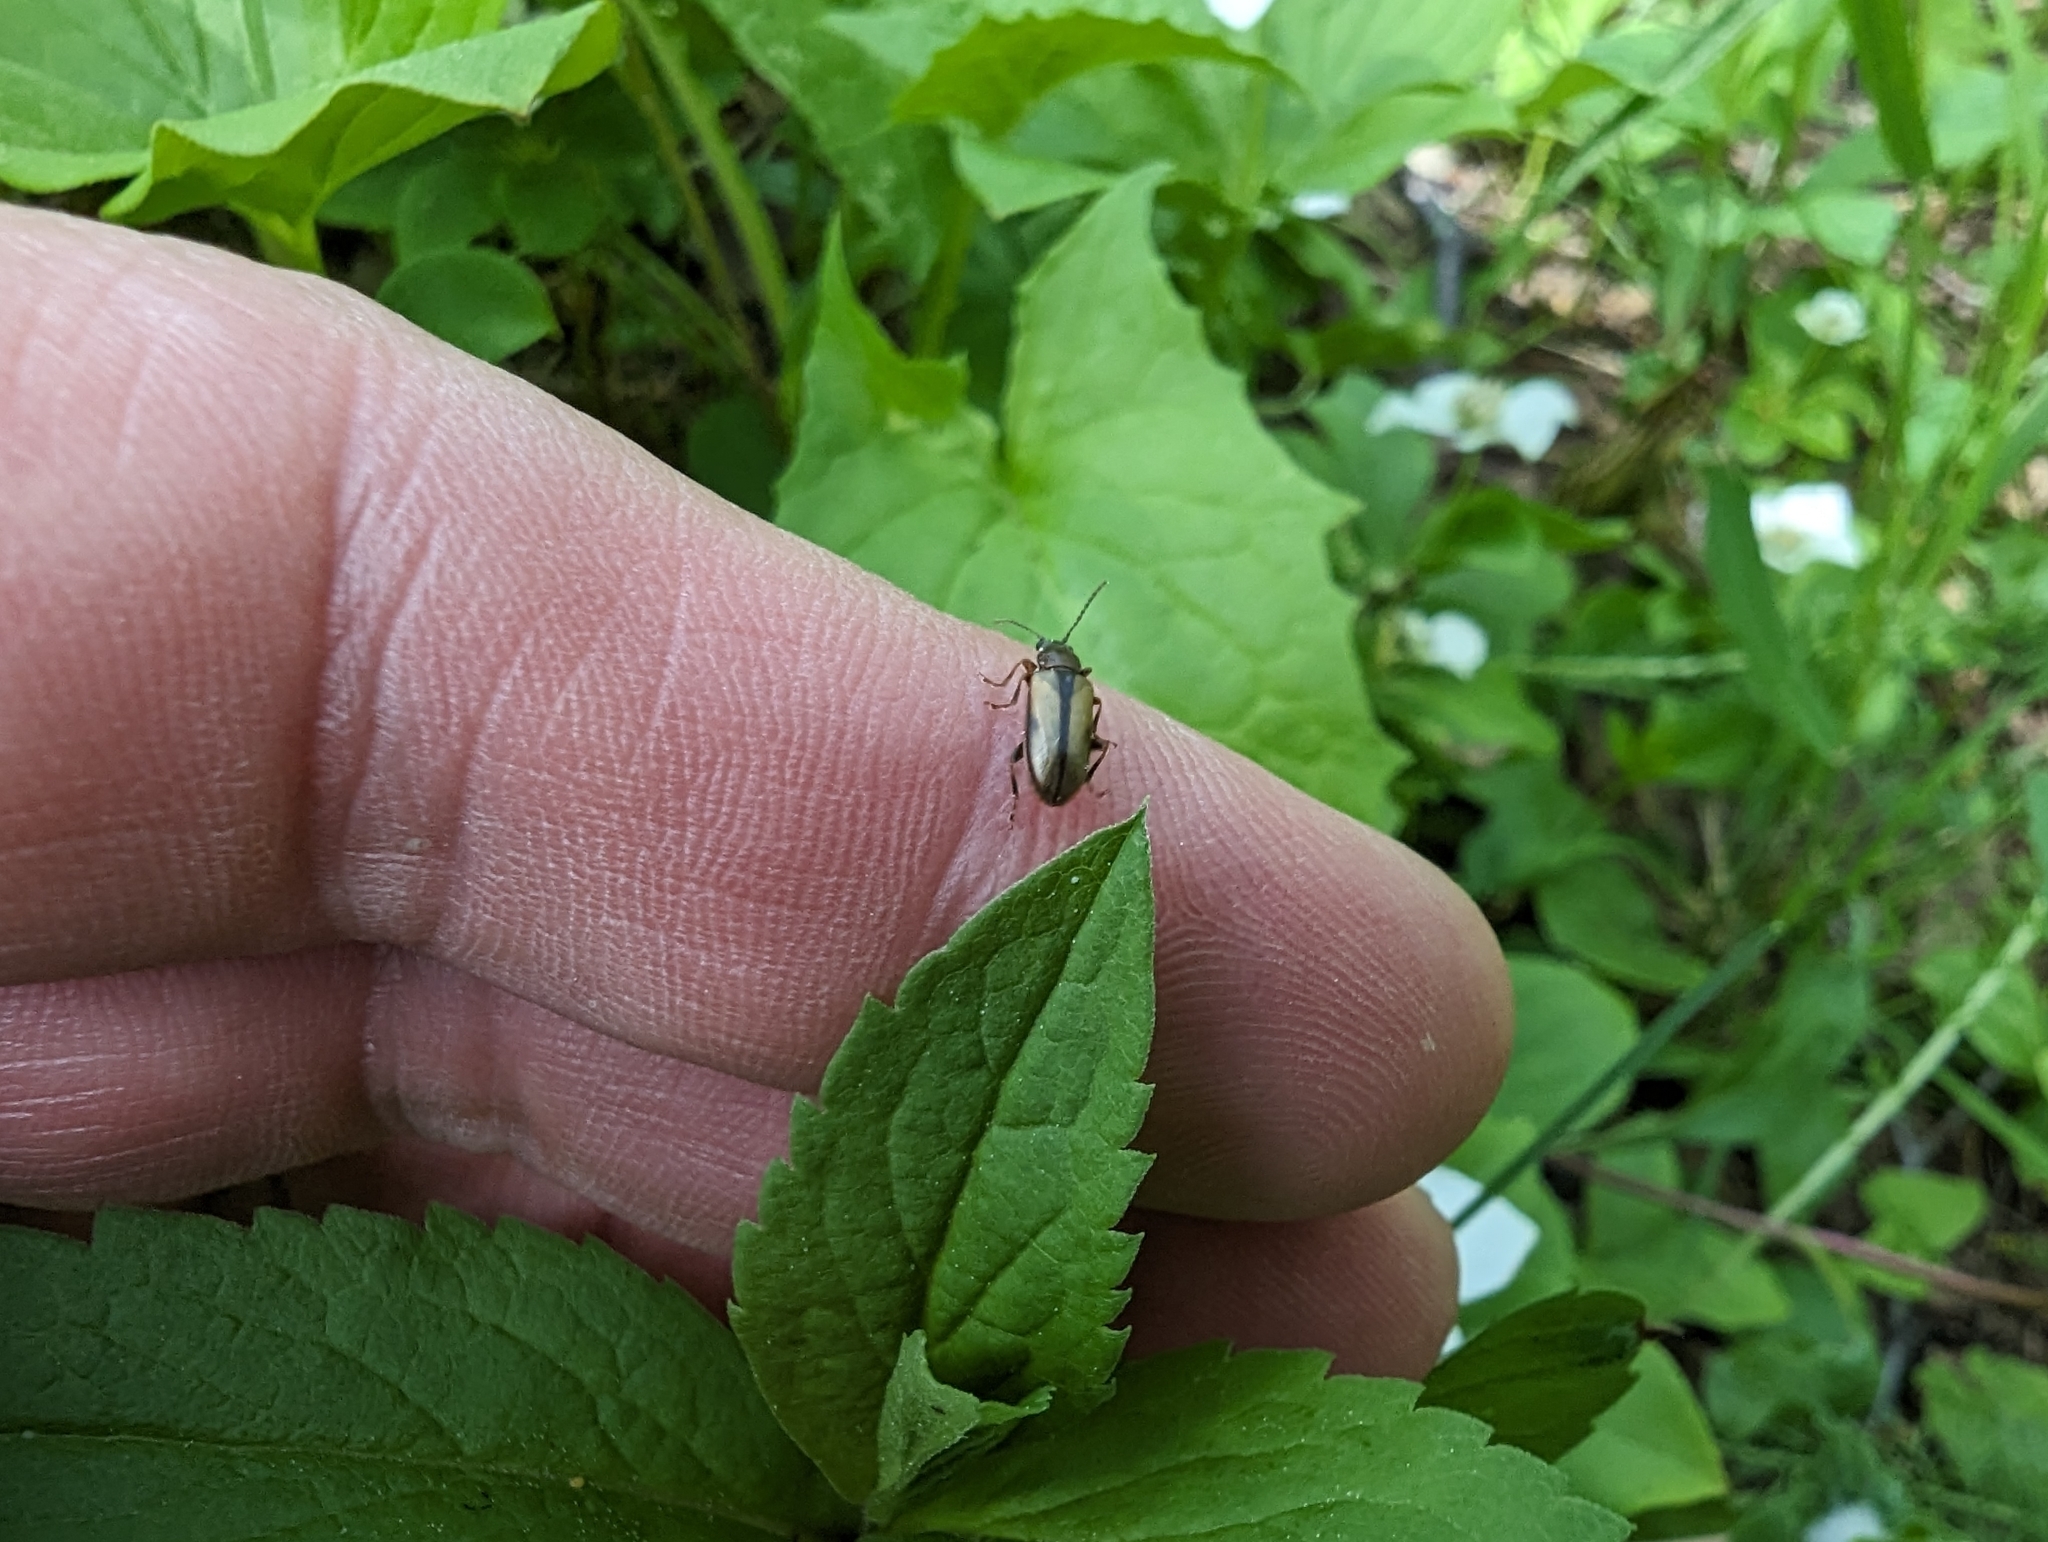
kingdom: Animalia
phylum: Arthropoda
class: Insecta
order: Coleoptera
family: Orsodacnidae
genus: Orsodacne
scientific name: Orsodacne atra
